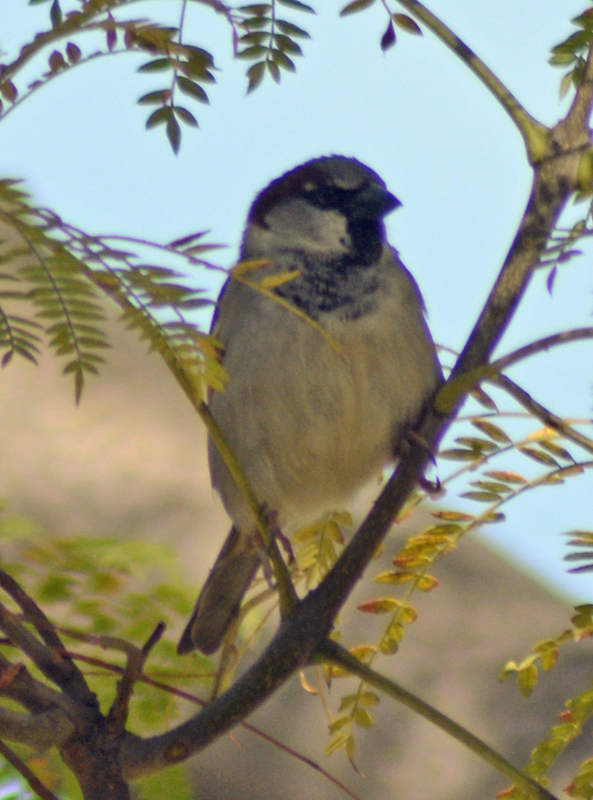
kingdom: Animalia
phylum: Chordata
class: Aves
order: Passeriformes
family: Passeridae
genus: Passer
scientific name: Passer domesticus
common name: House sparrow
